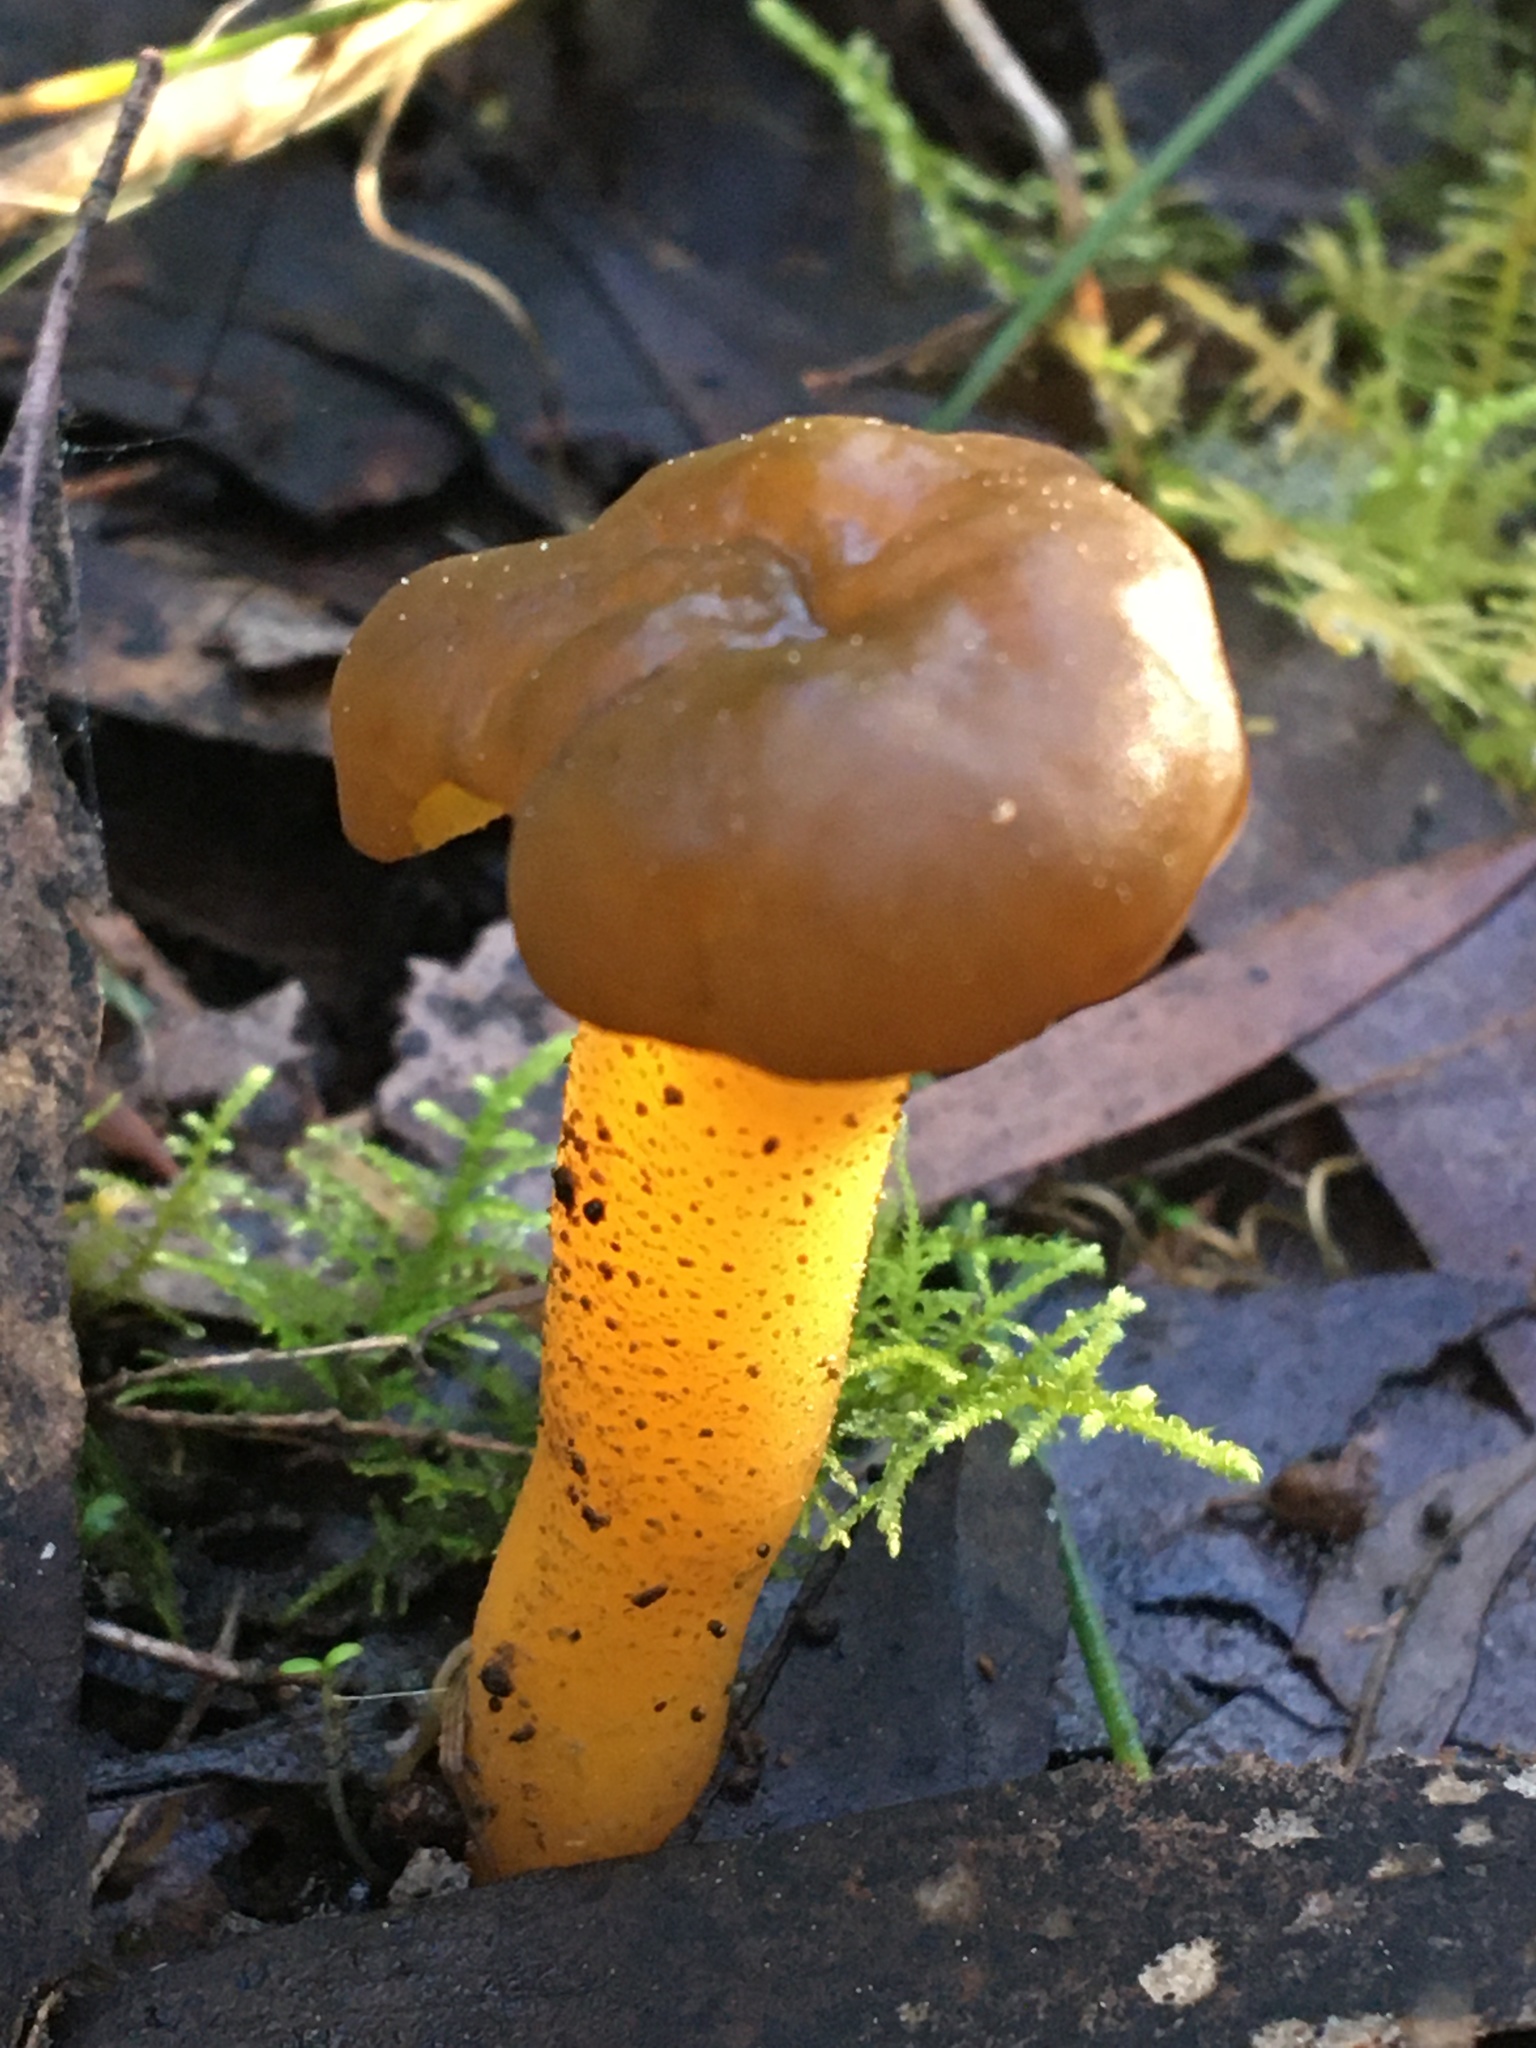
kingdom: Fungi
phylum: Ascomycota
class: Leotiomycetes
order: Leotiales
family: Leotiaceae
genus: Leotia
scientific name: Leotia lubrica
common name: Jellybaby
